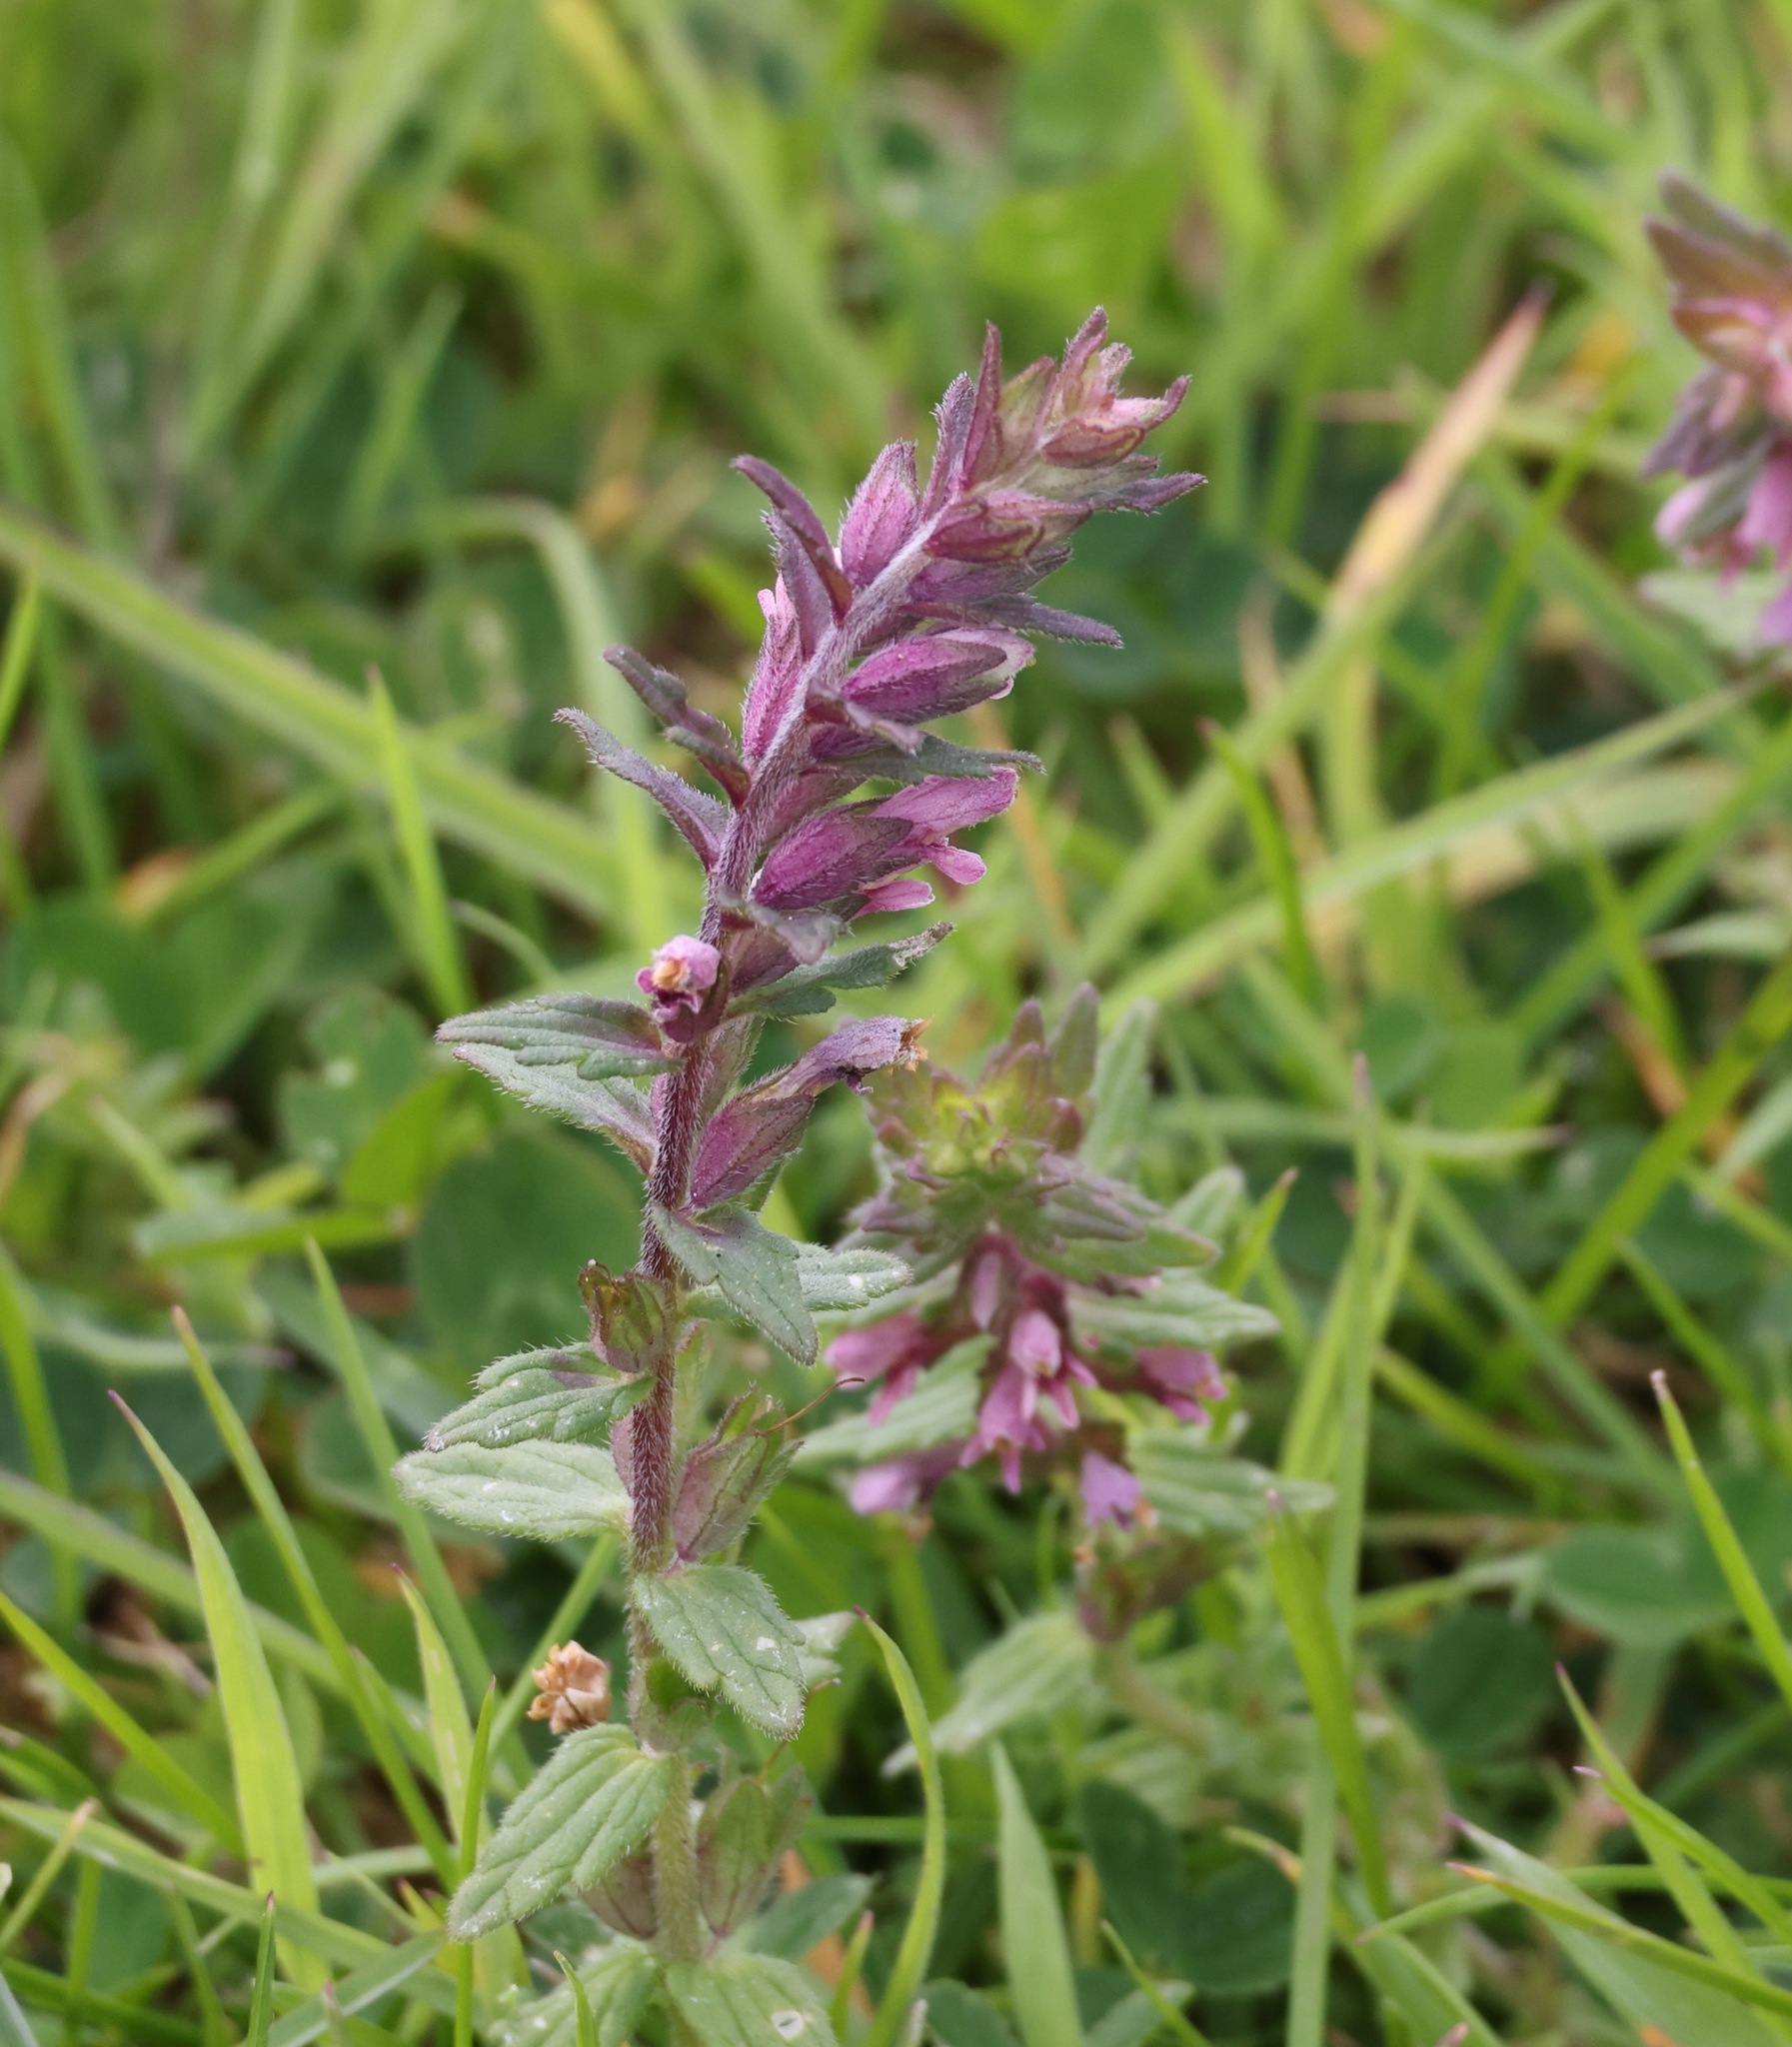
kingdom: Plantae
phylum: Tracheophyta
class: Magnoliopsida
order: Lamiales
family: Orobanchaceae
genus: Odontites
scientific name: Odontites vulgaris
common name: Broomrape
